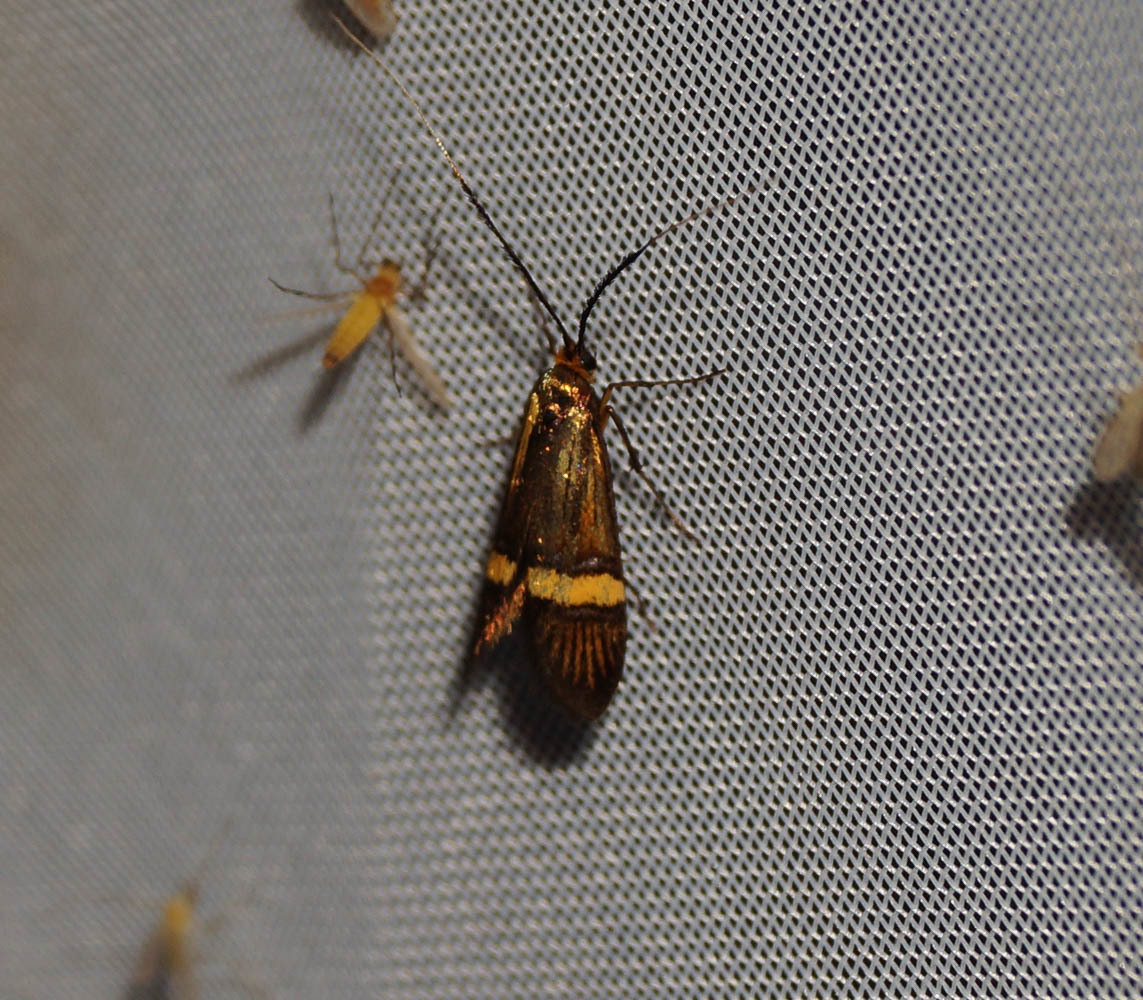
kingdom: Animalia
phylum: Arthropoda
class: Insecta
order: Lepidoptera
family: Adelidae
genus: Nemophora
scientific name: Nemophora degeerella
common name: Yellow-barred long-horn
